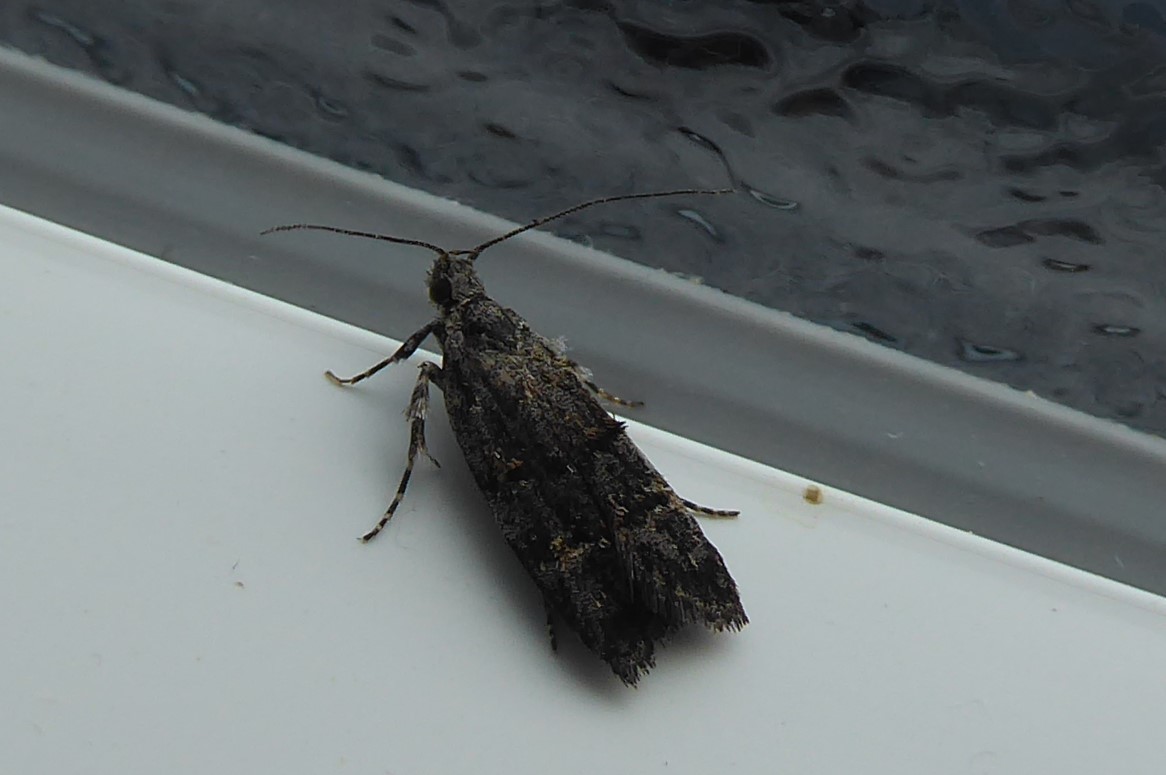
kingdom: Animalia
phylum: Arthropoda
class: Insecta
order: Lepidoptera
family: Oecophoridae
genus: Izatha
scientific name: Izatha copiosella
